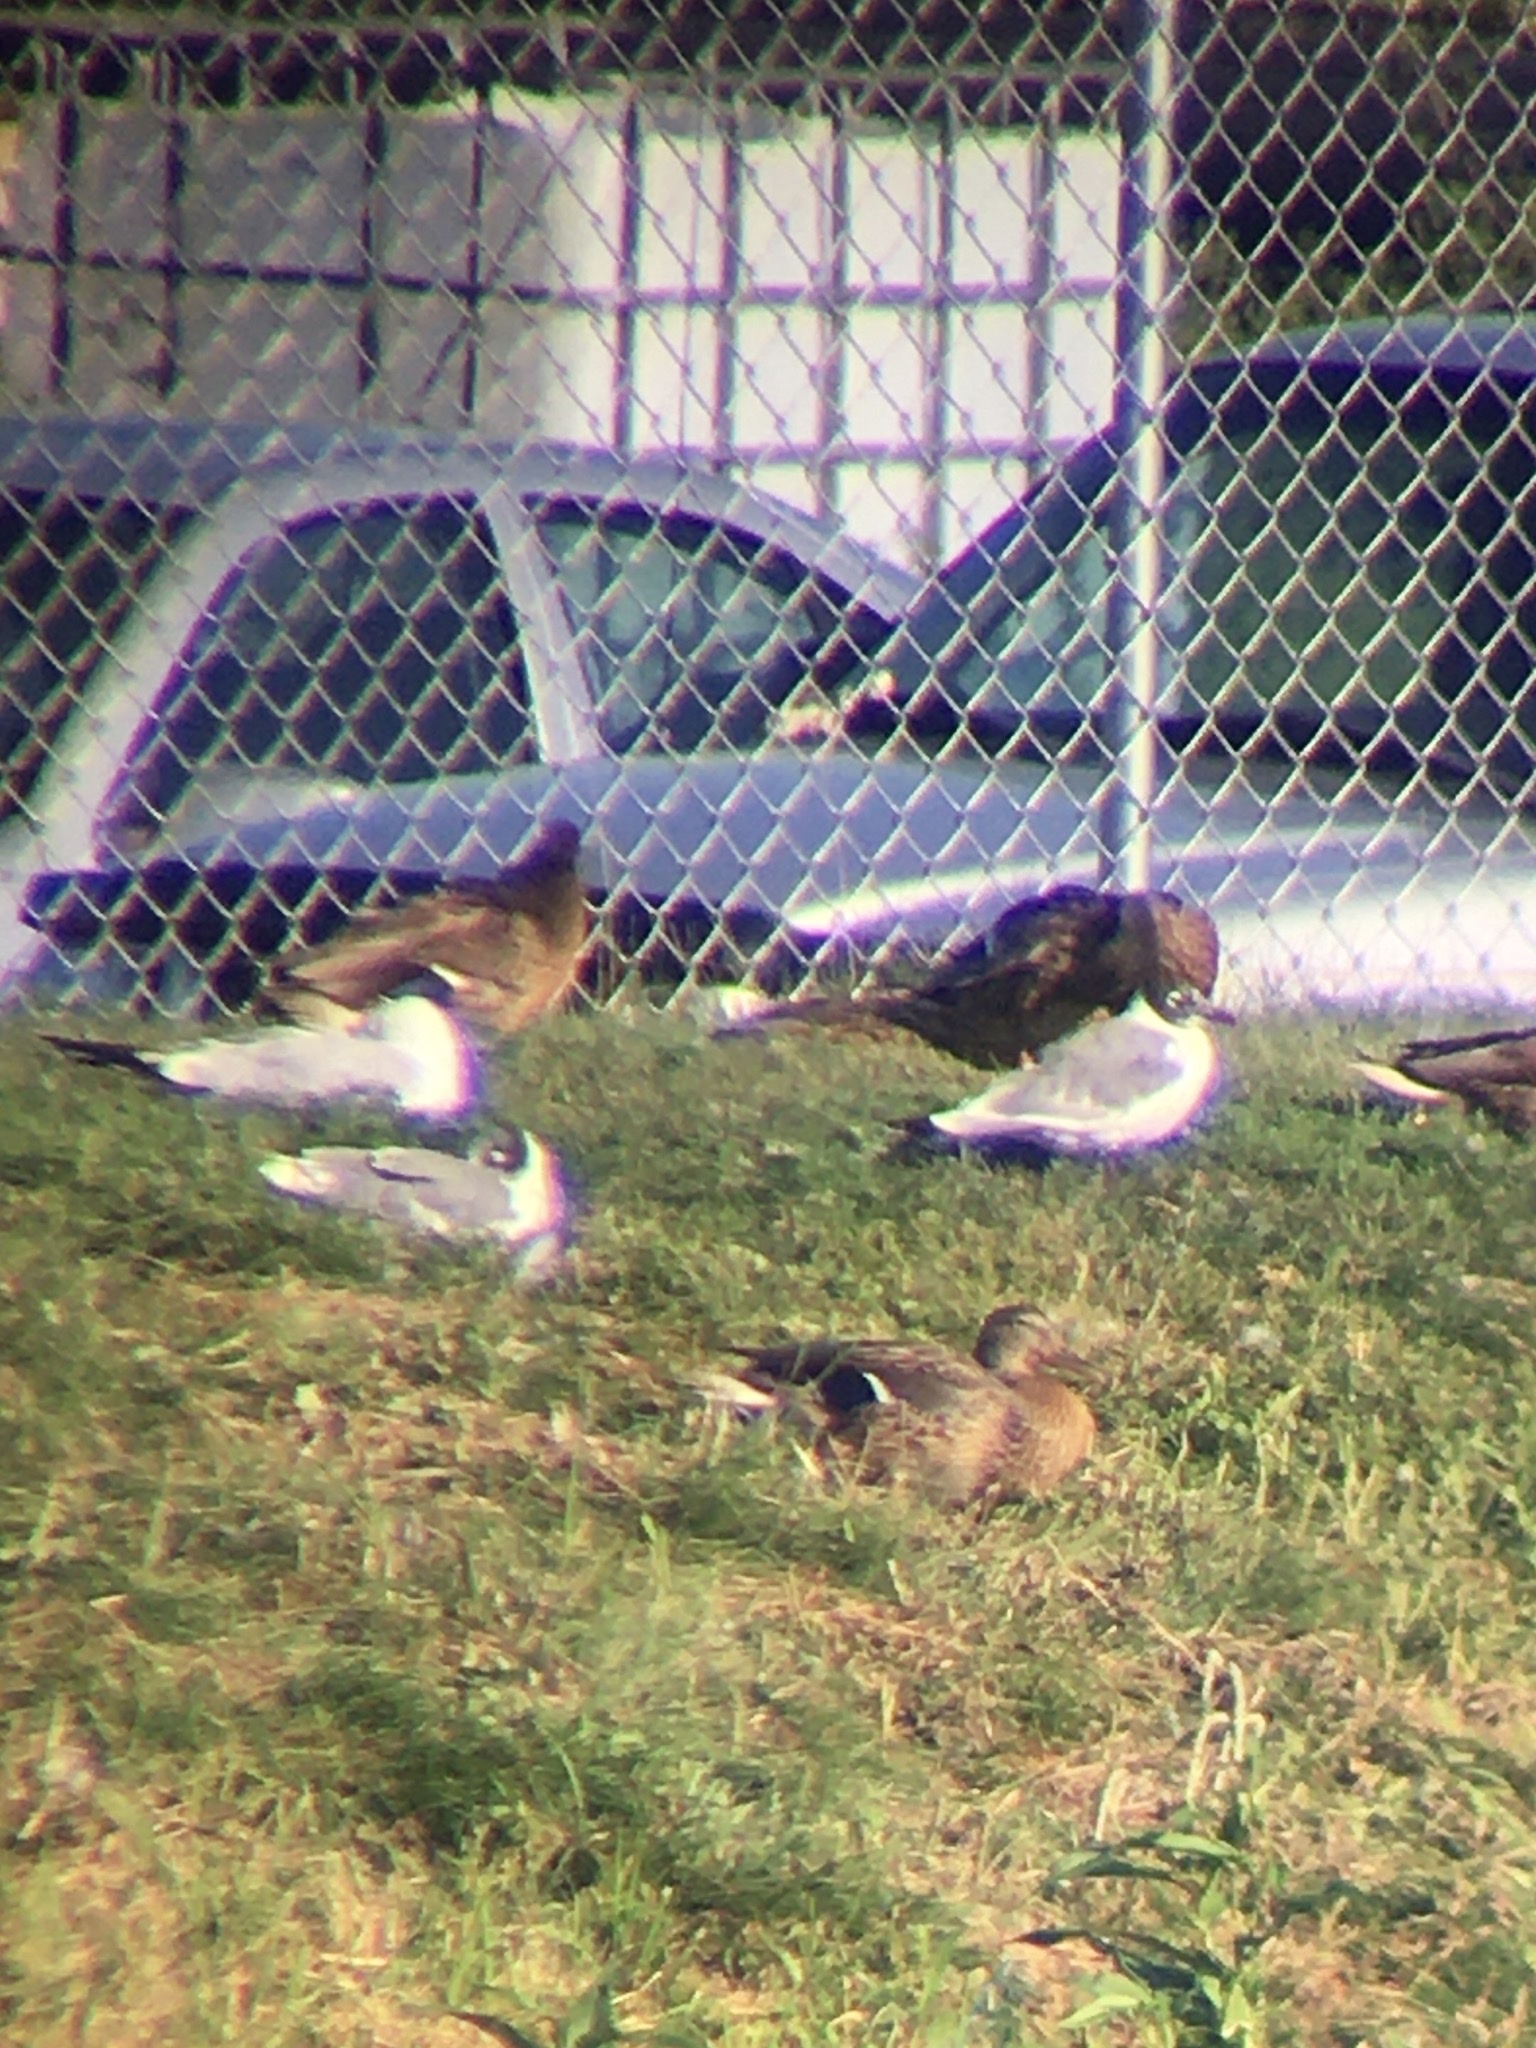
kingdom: Animalia
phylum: Chordata
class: Aves
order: Charadriiformes
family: Laridae
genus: Leucophaeus
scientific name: Leucophaeus pipixcan
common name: Franklin's gull
